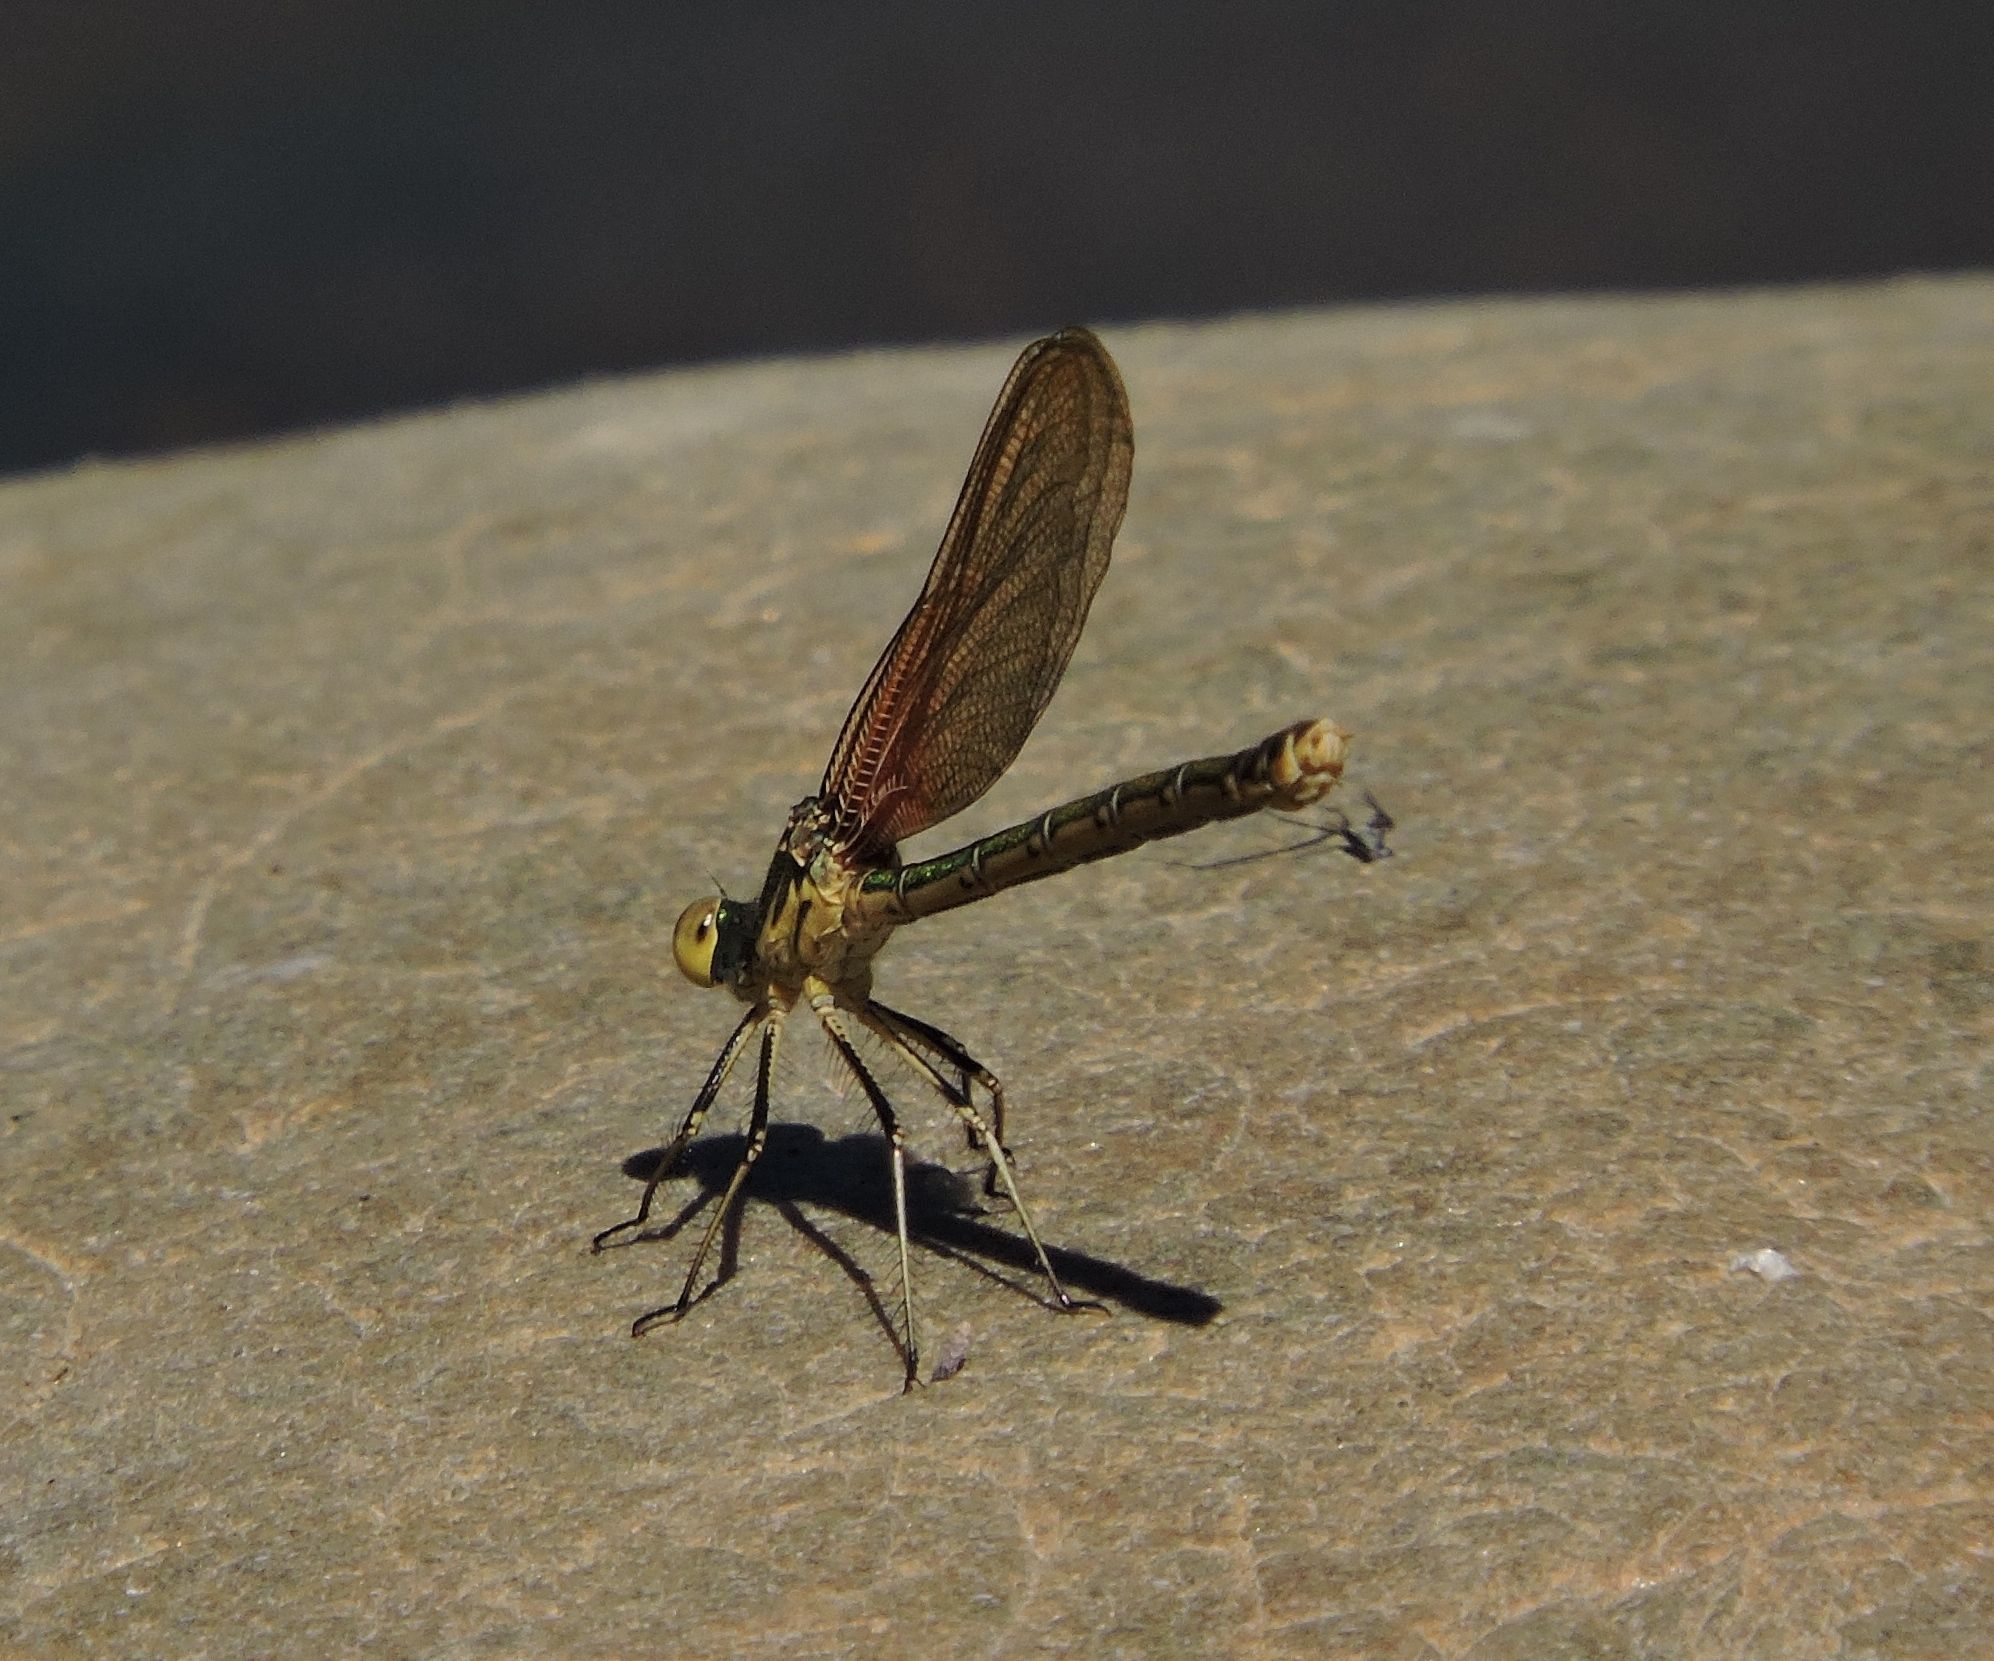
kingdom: Animalia
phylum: Arthropoda
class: Insecta
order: Odonata
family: Calopterygidae
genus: Hetaerina
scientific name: Hetaerina americana
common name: American rubyspot
